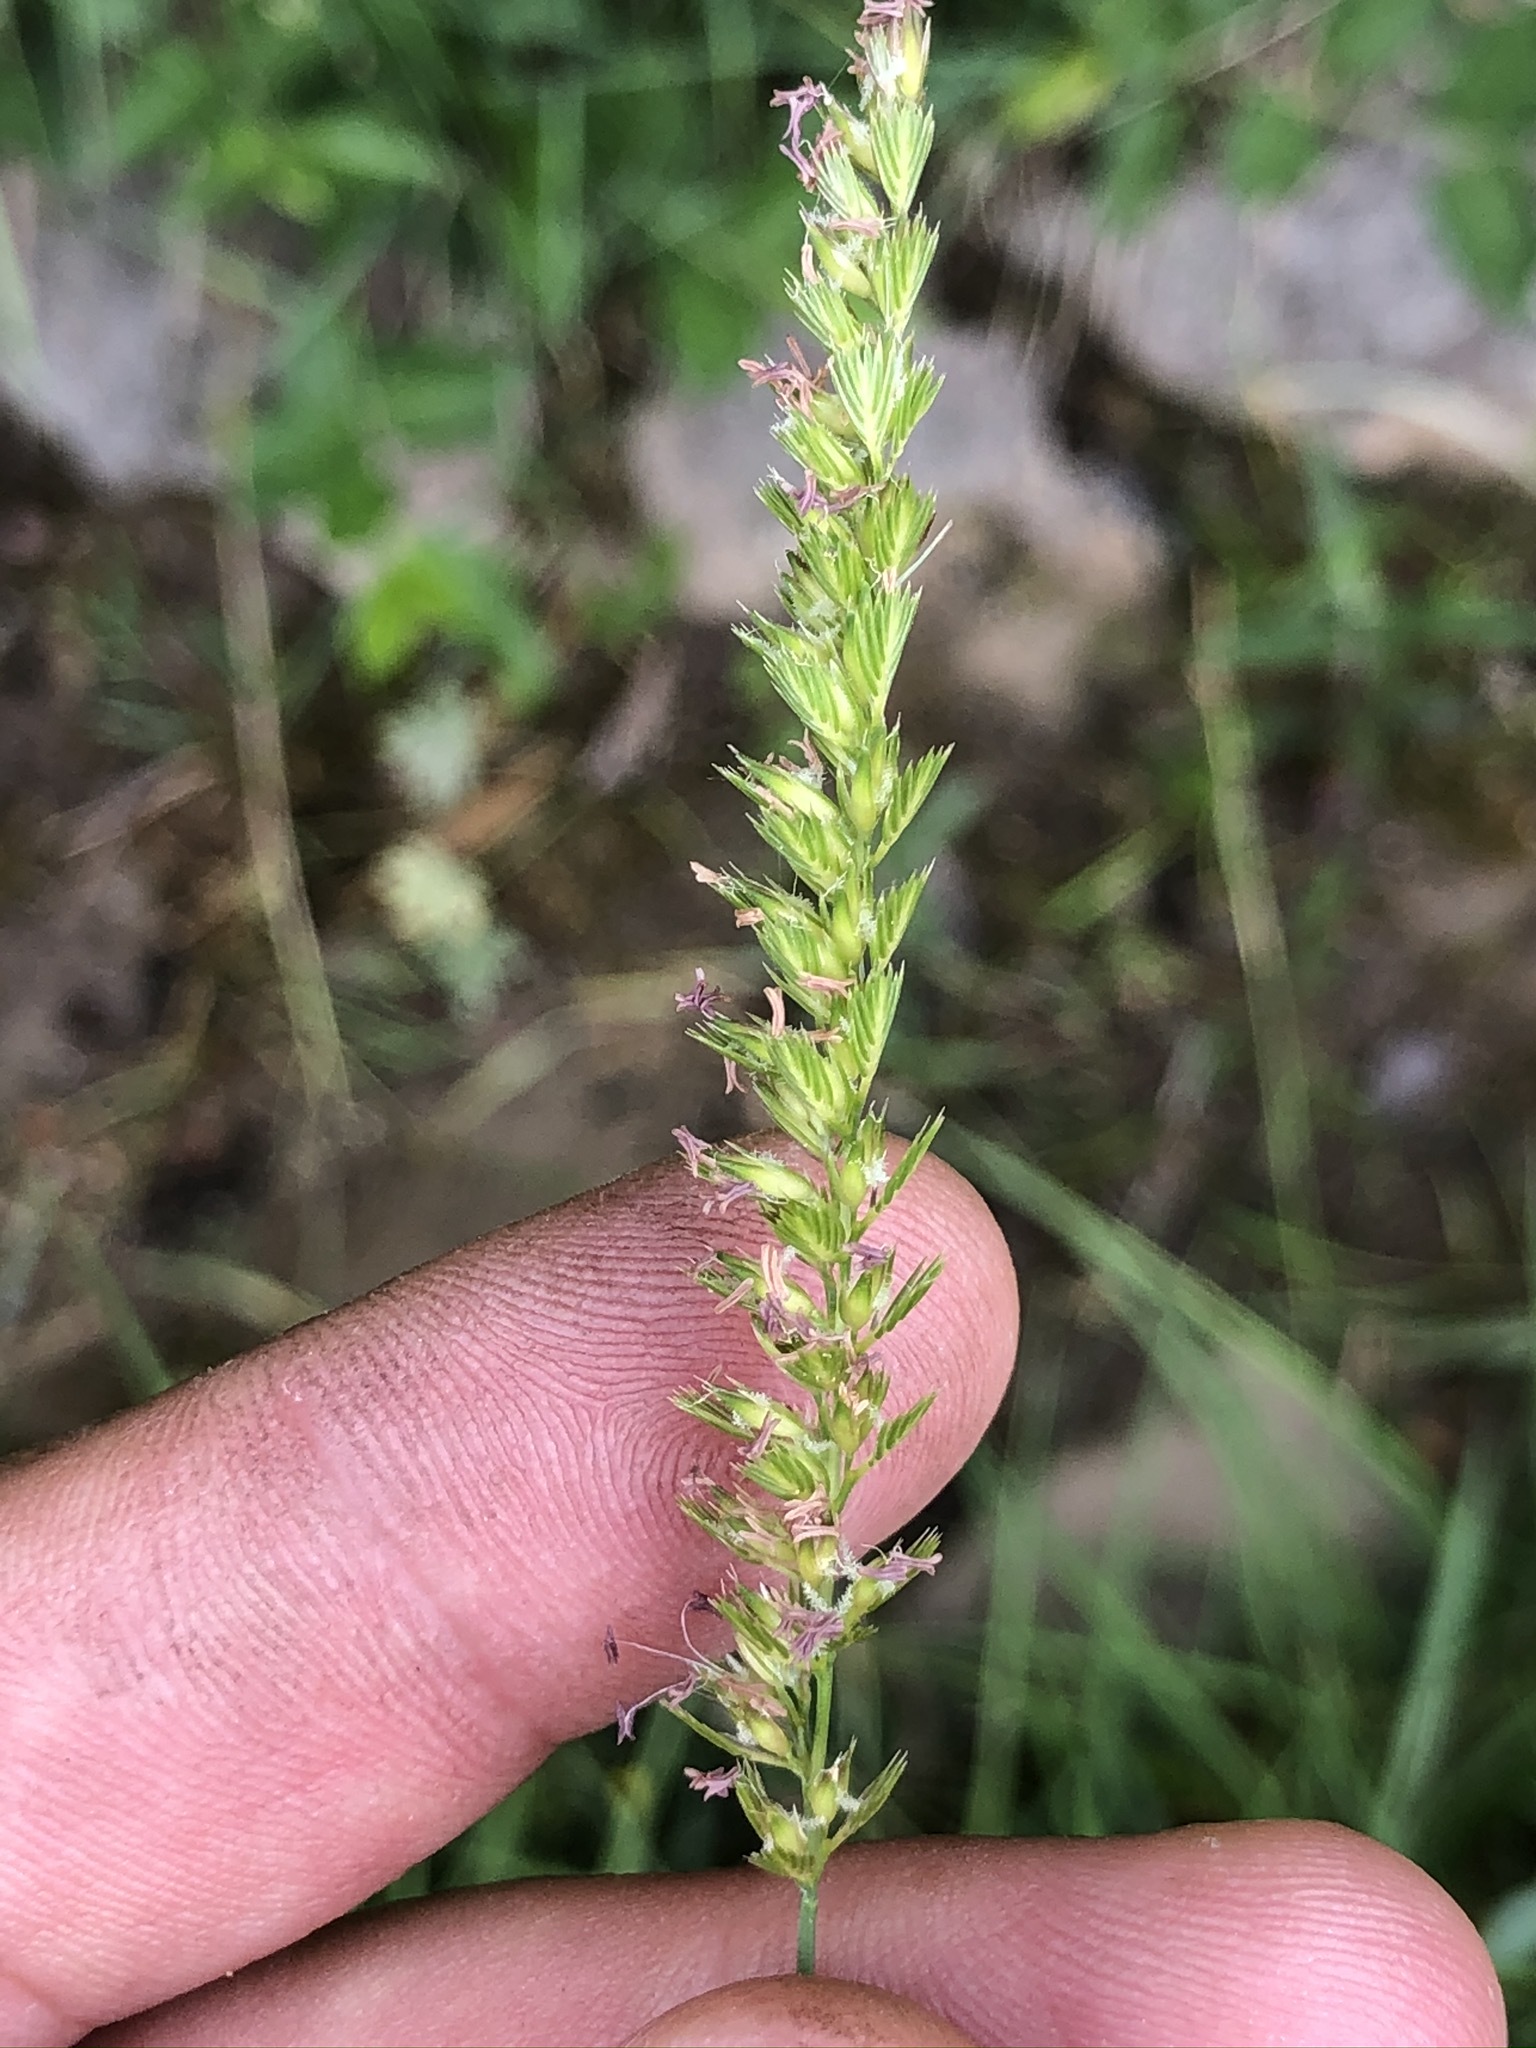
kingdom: Plantae
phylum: Tracheophyta
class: Liliopsida
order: Poales
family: Poaceae
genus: Cynosurus
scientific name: Cynosurus cristatus
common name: Crested dog's-tail
